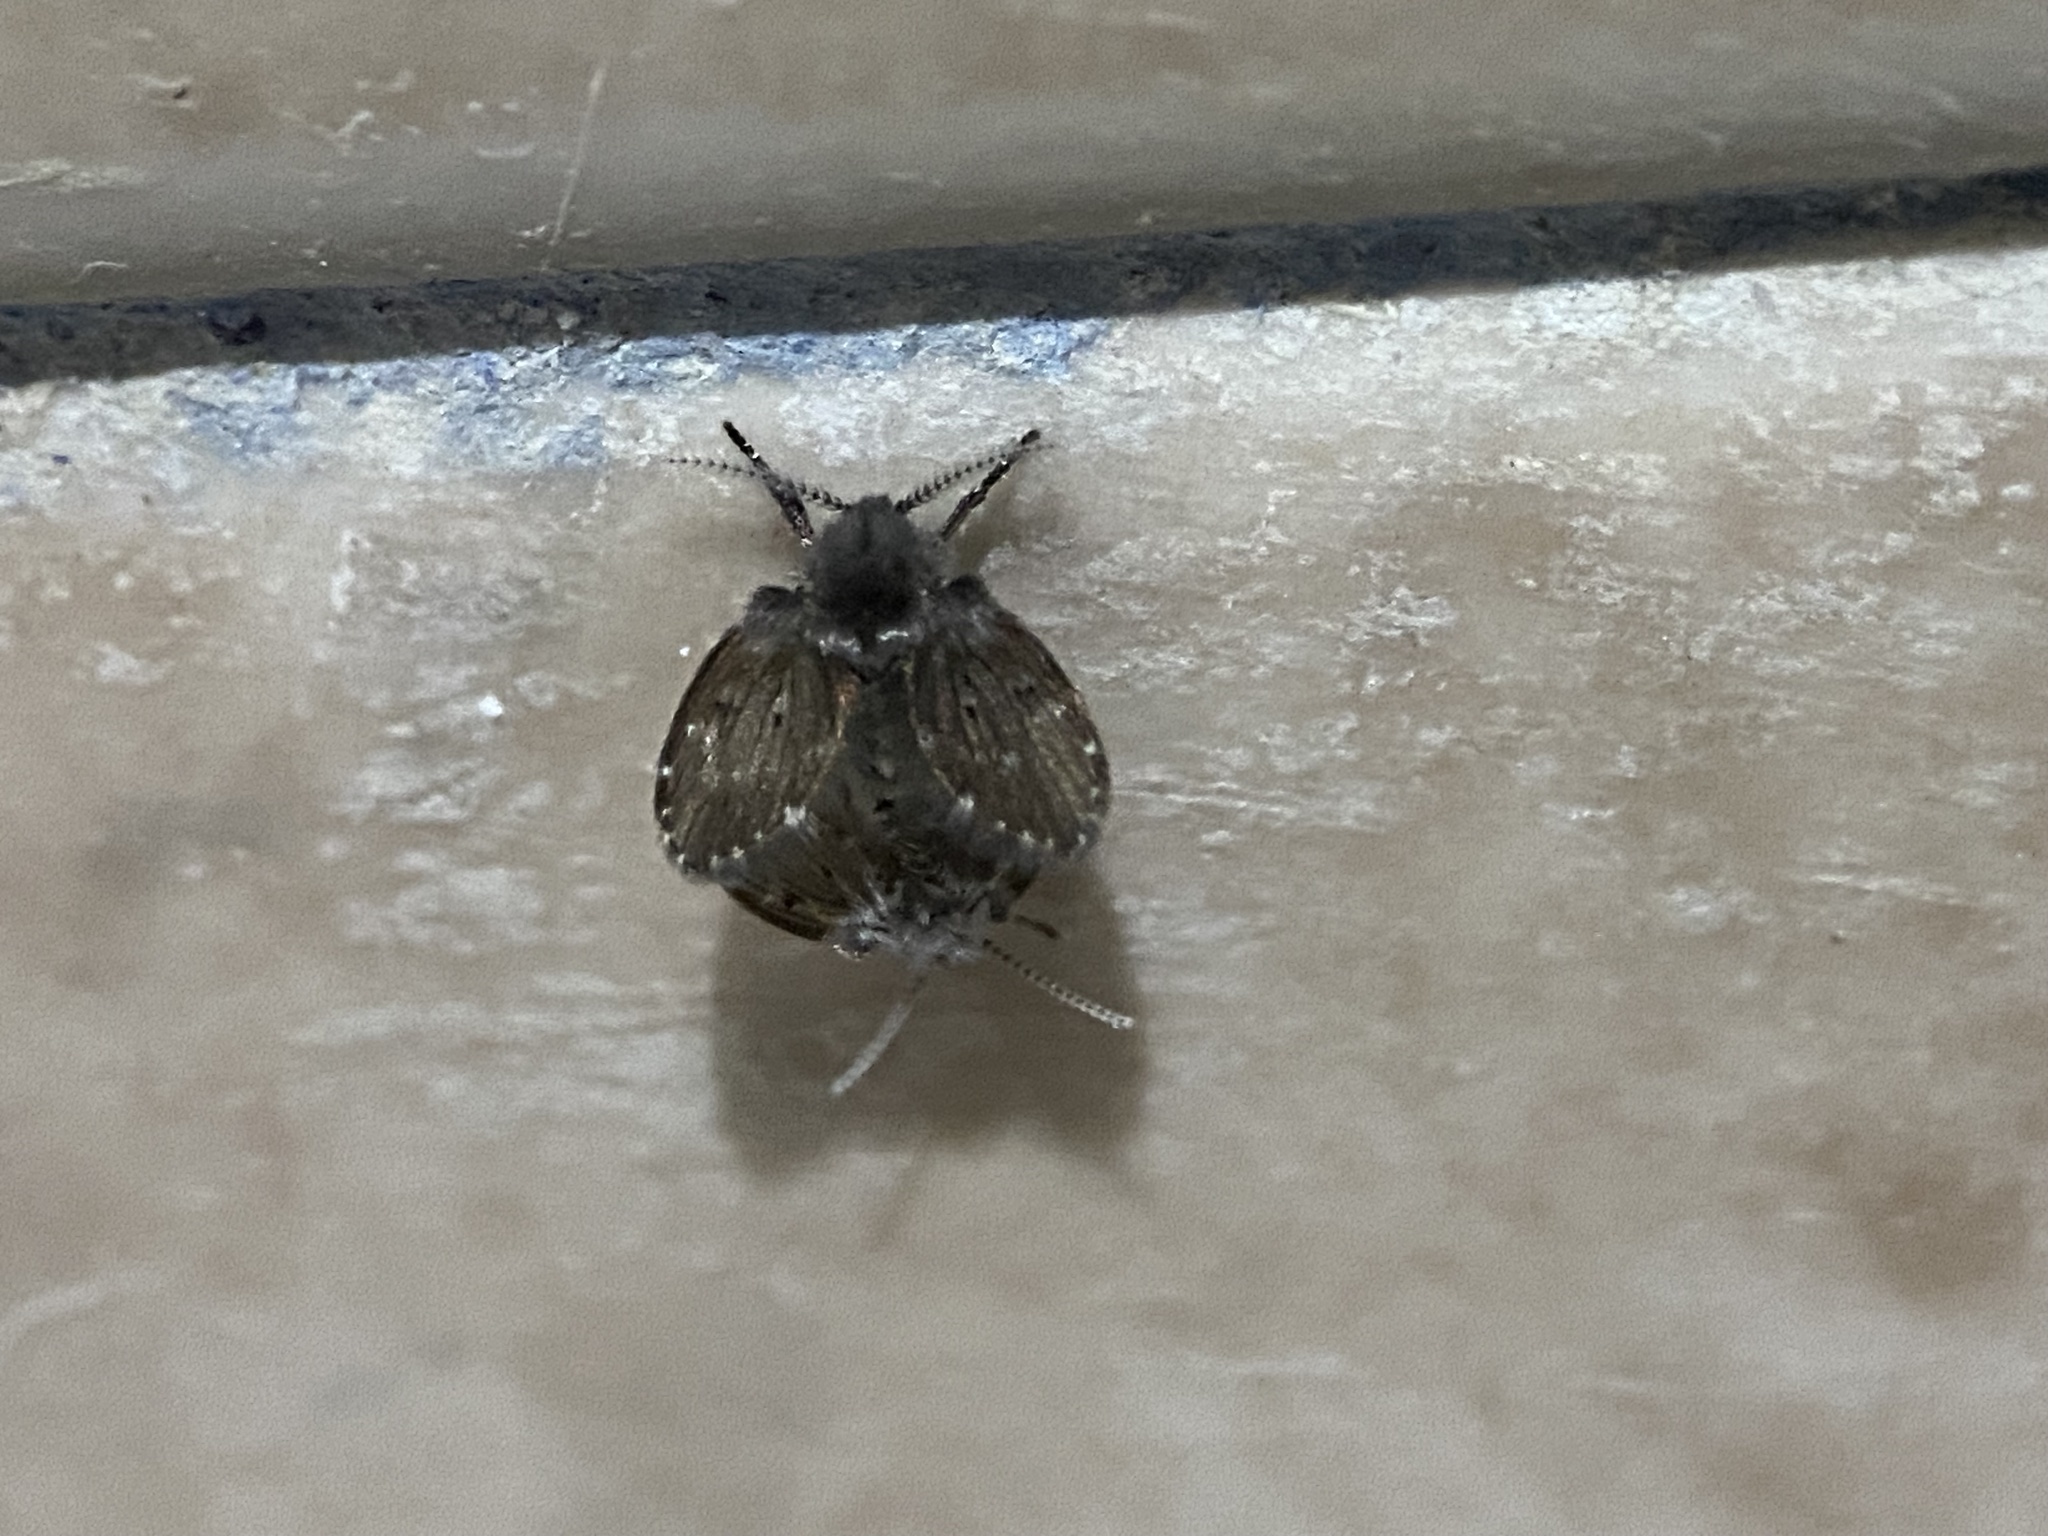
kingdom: Animalia
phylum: Arthropoda
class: Insecta
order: Diptera
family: Psychodidae
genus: Clogmia
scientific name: Clogmia albipunctatus
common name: White-spotted moth fly
